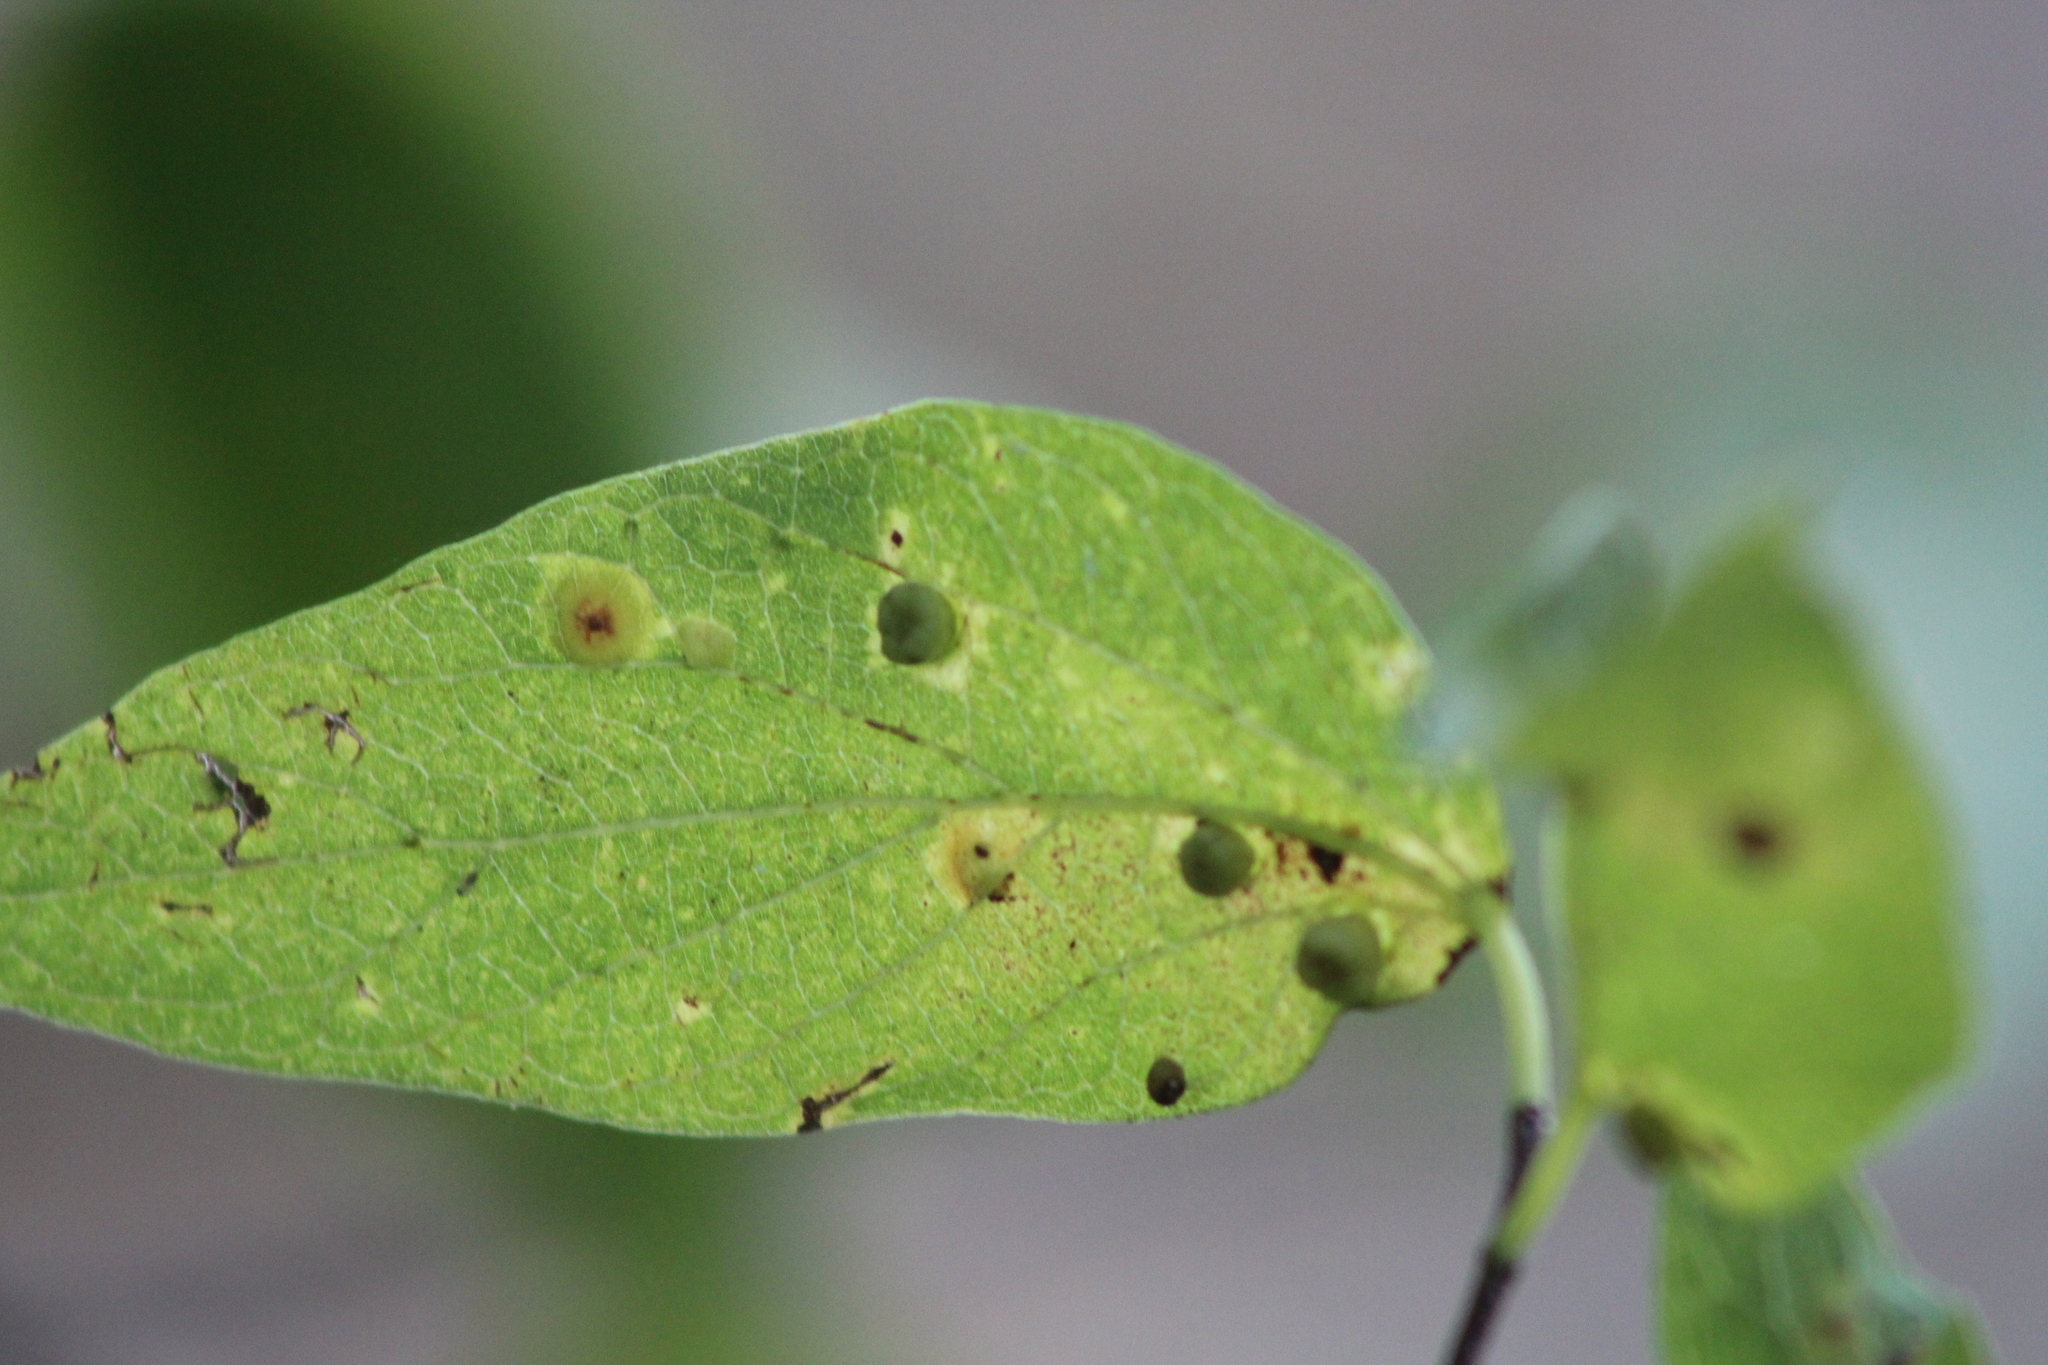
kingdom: Animalia
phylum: Arthropoda
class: Insecta
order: Hemiptera
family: Aphalaridae
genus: Pachypsylla
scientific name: Pachypsylla celtidismamma
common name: Hackberry nipplegall psyllid
